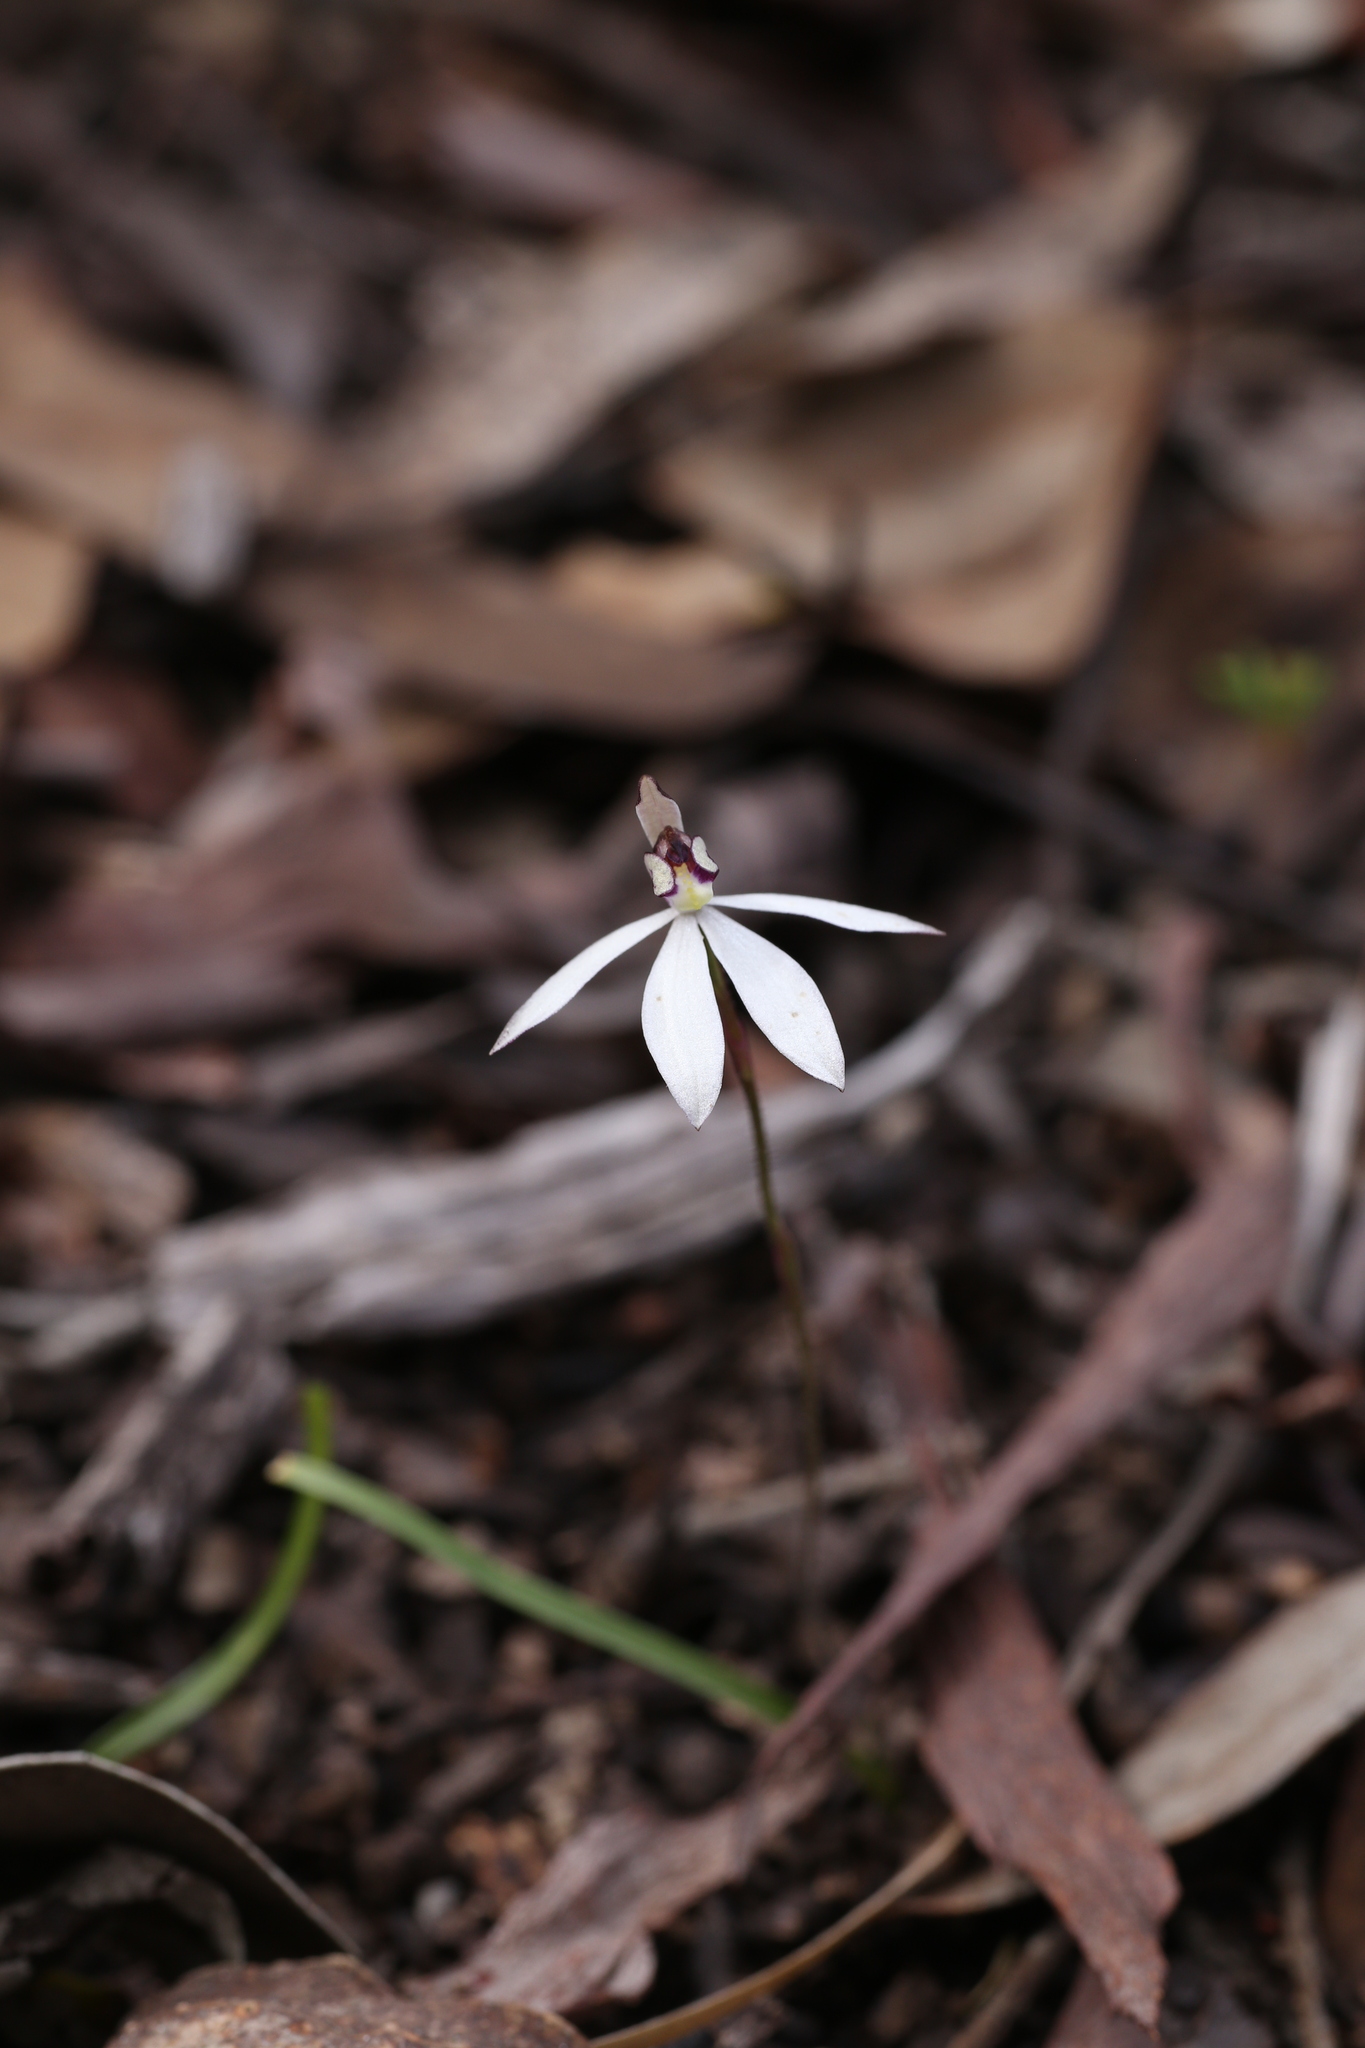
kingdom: Plantae
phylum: Tracheophyta
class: Liliopsida
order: Asparagales
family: Orchidaceae
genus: Caladenia
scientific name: Caladenia saccharata
